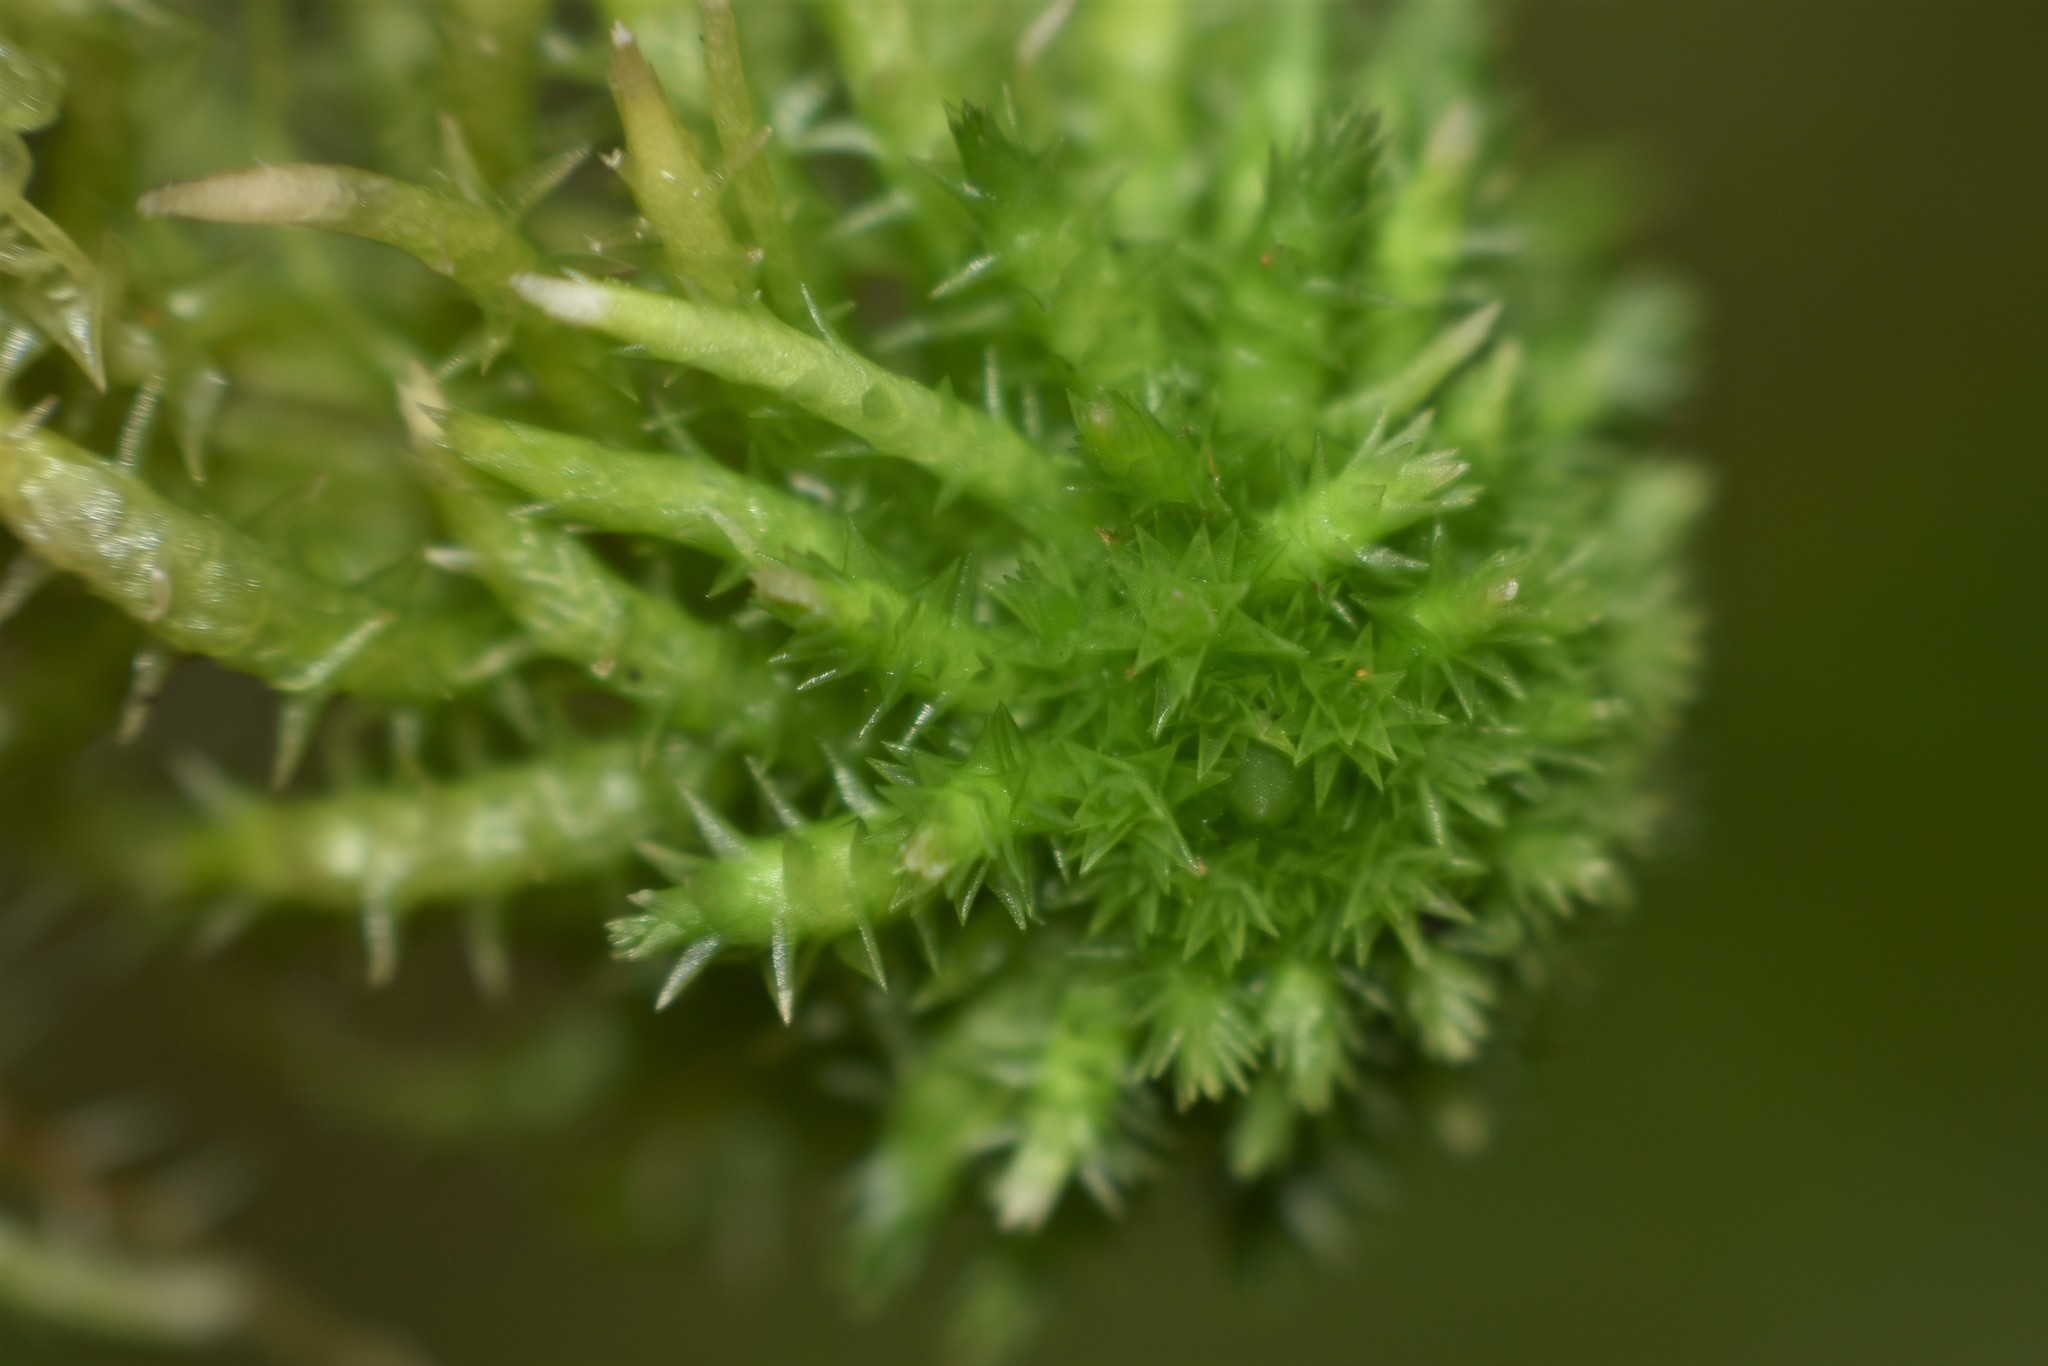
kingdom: Plantae
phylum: Bryophyta
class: Sphagnopsida
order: Sphagnales
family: Sphagnaceae
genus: Sphagnum
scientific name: Sphagnum squarrosum
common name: Shaggy peat moss
